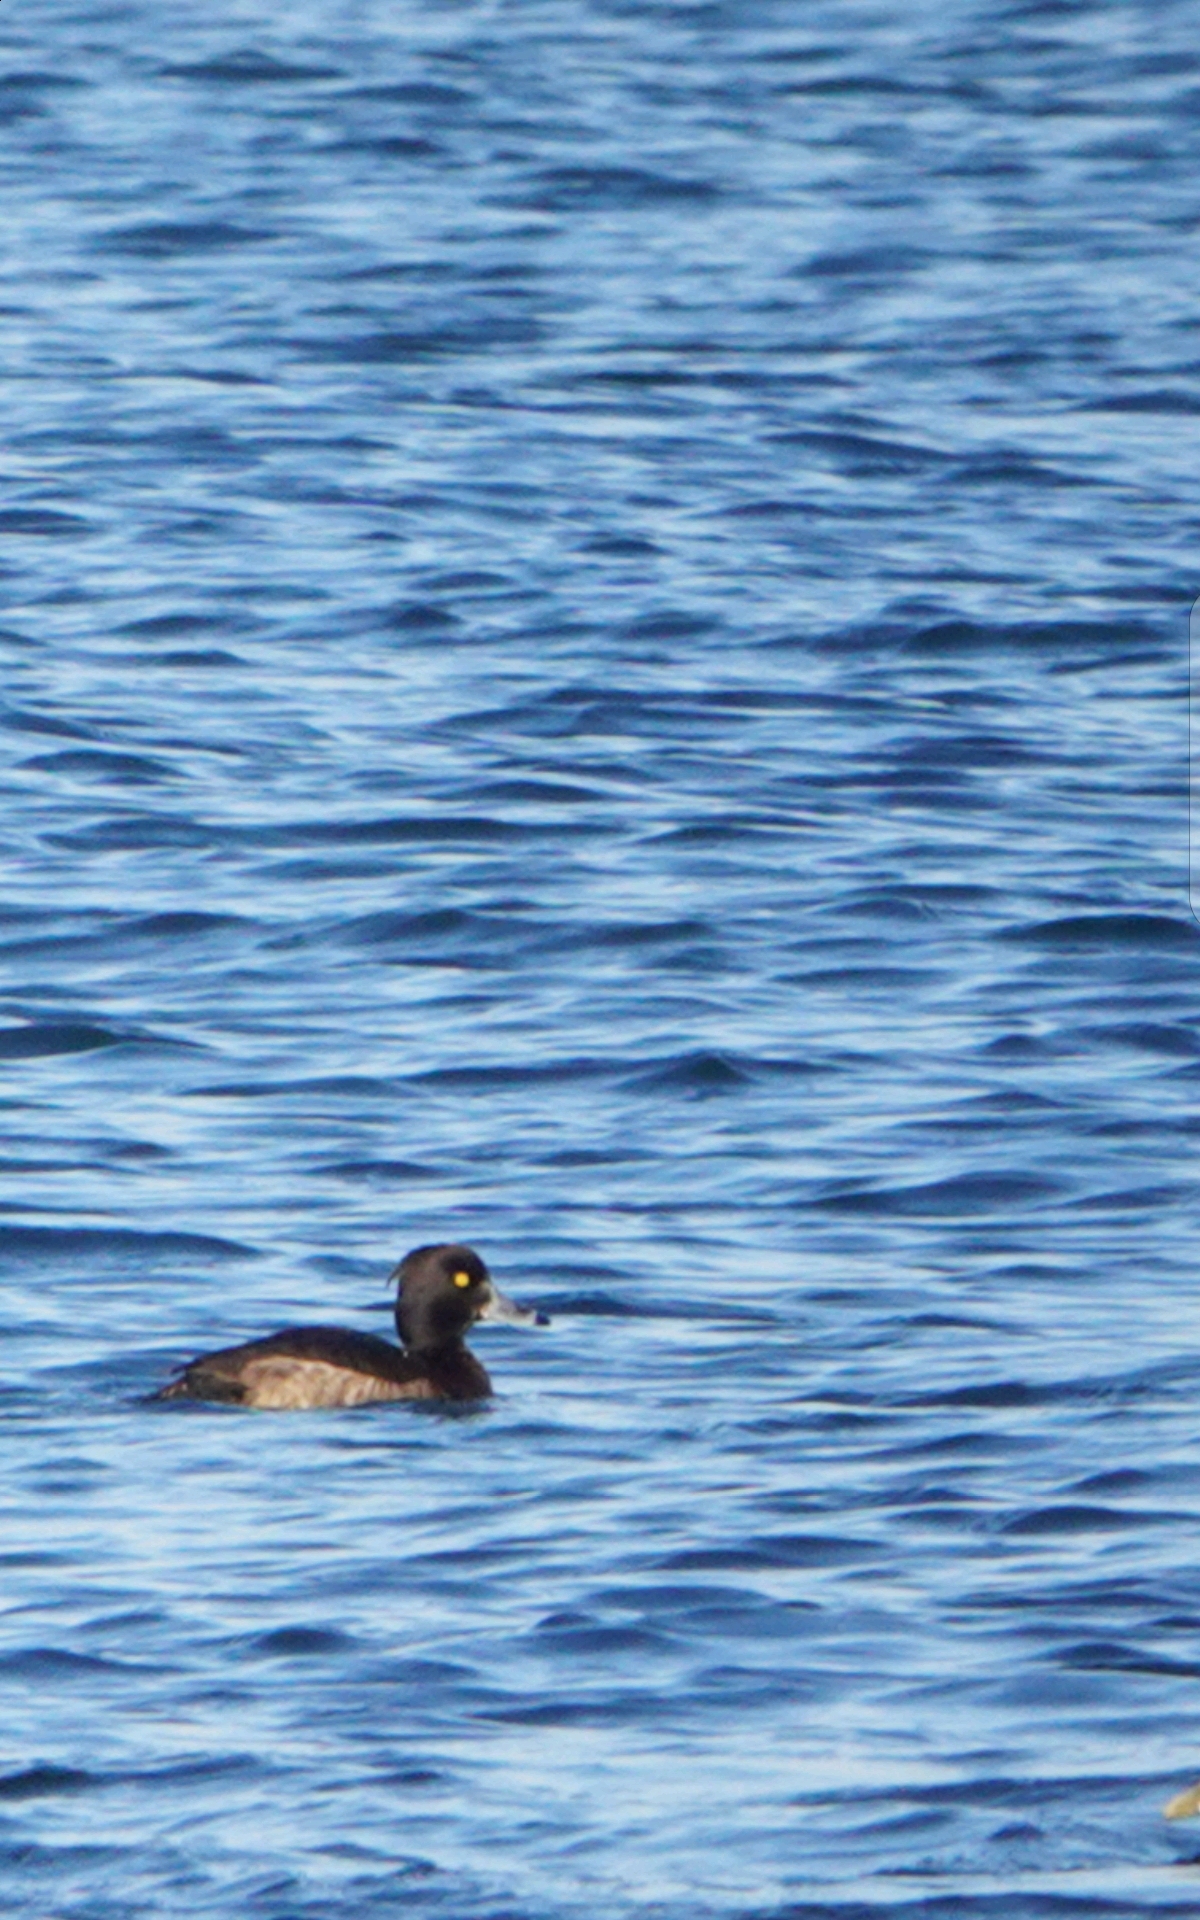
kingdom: Animalia
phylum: Chordata
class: Aves
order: Anseriformes
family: Anatidae
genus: Aythya
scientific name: Aythya fuligula
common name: Tufted duck
